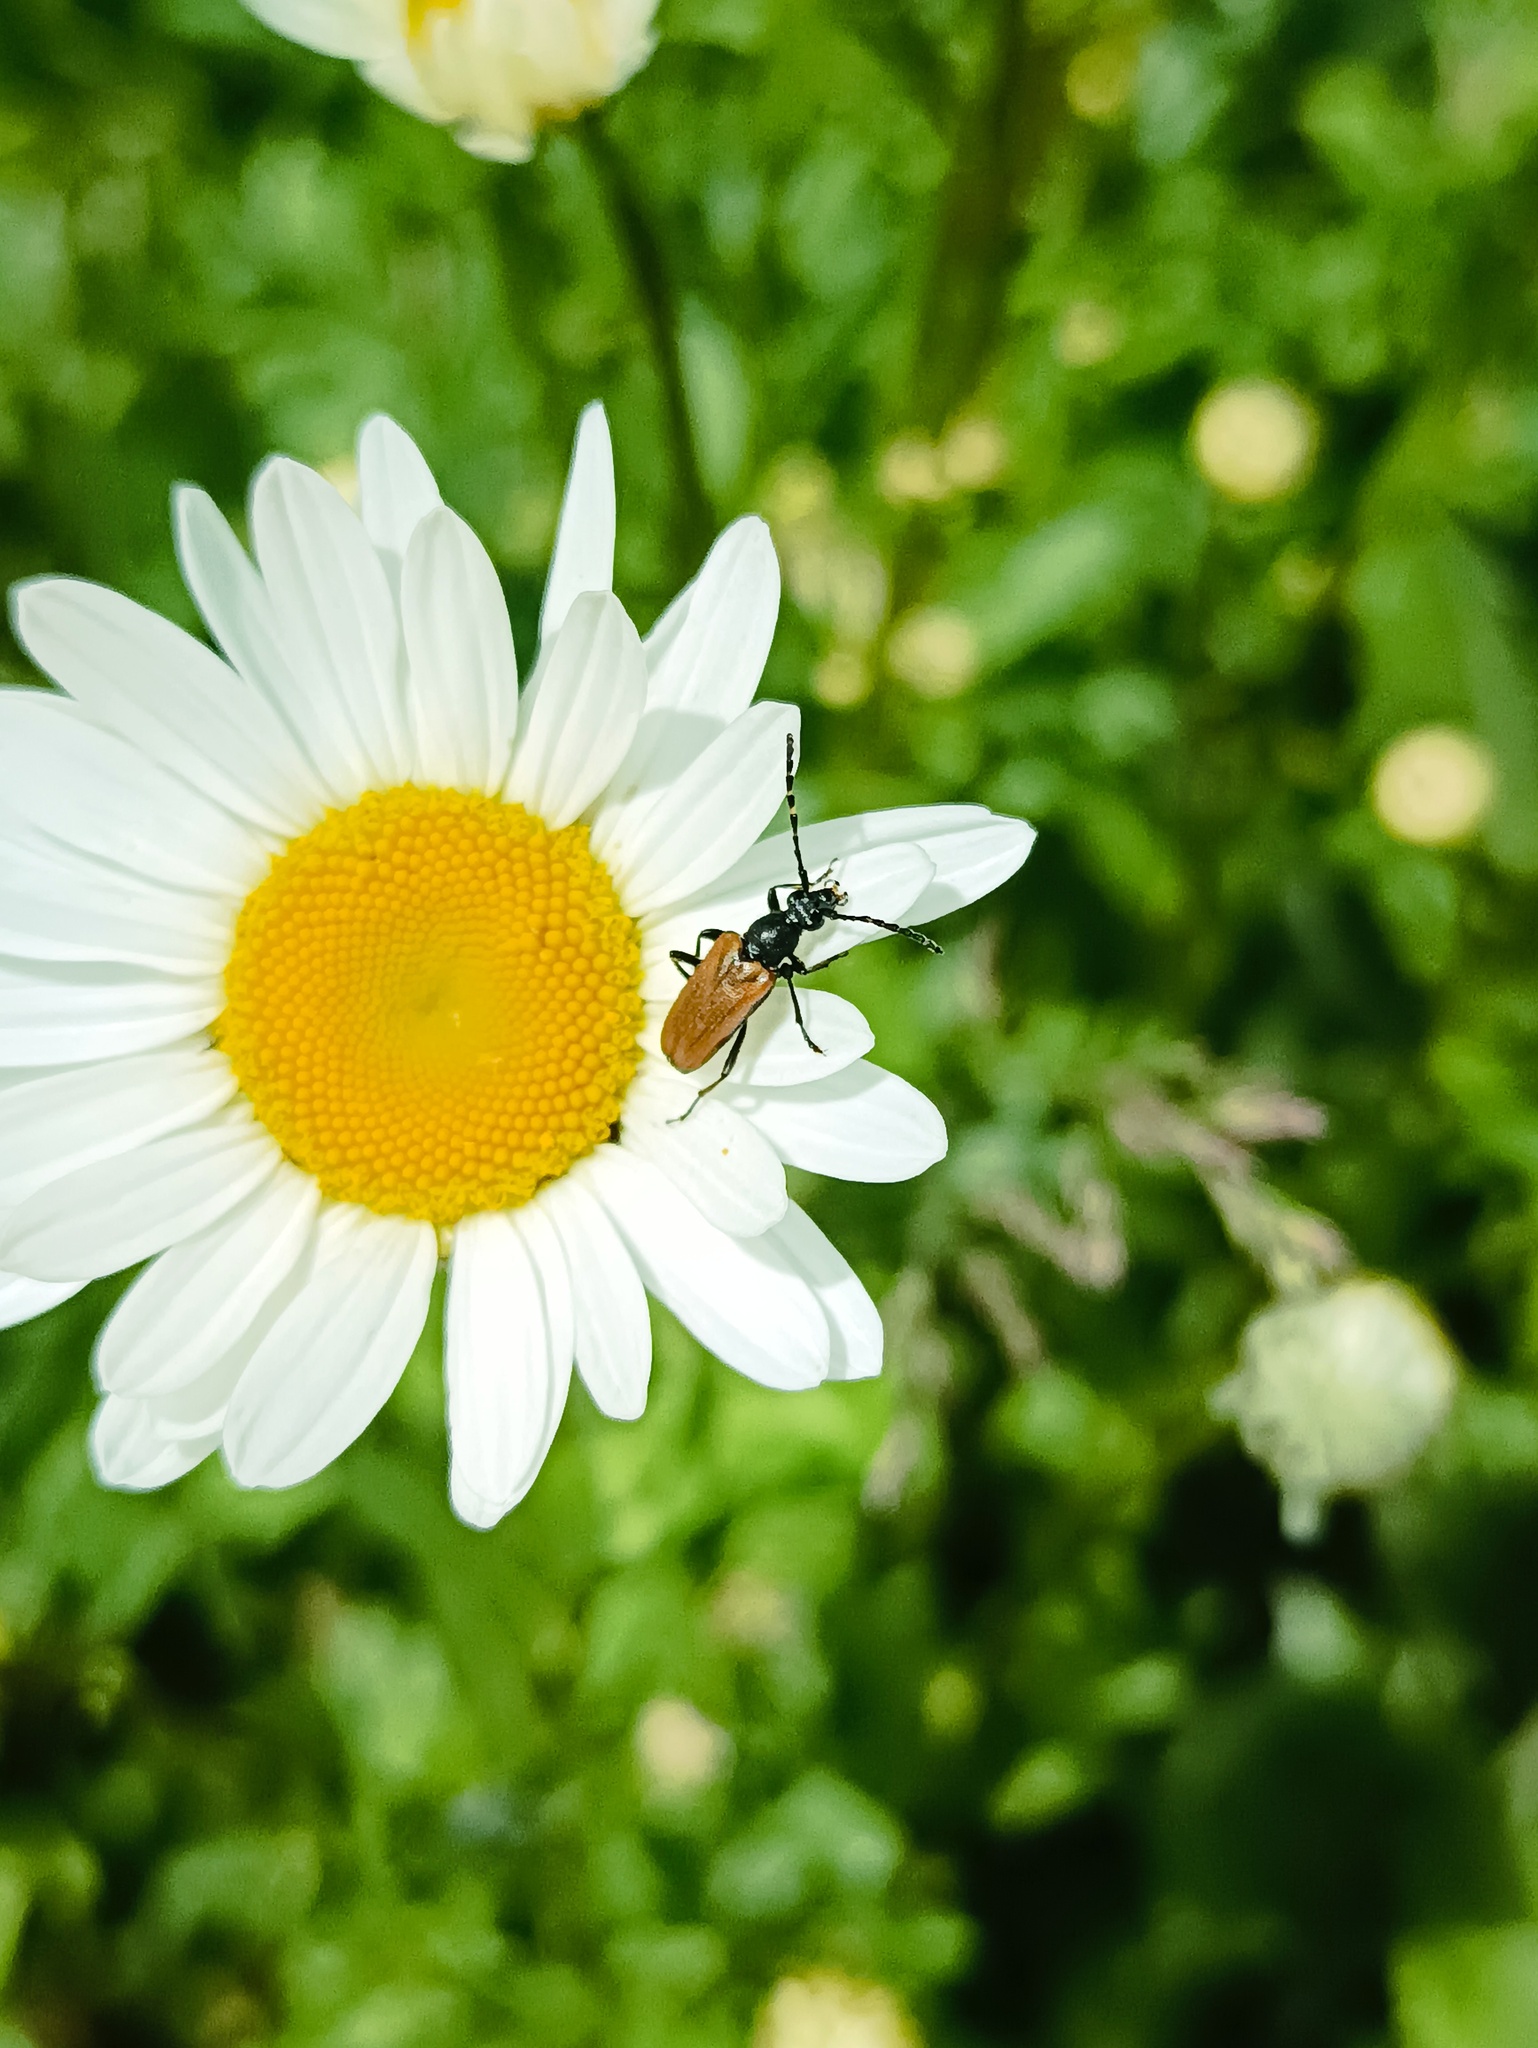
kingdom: Animalia
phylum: Arthropoda
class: Insecta
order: Coleoptera
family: Cerambycidae
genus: Paracorymbia
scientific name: Paracorymbia maculicornis
